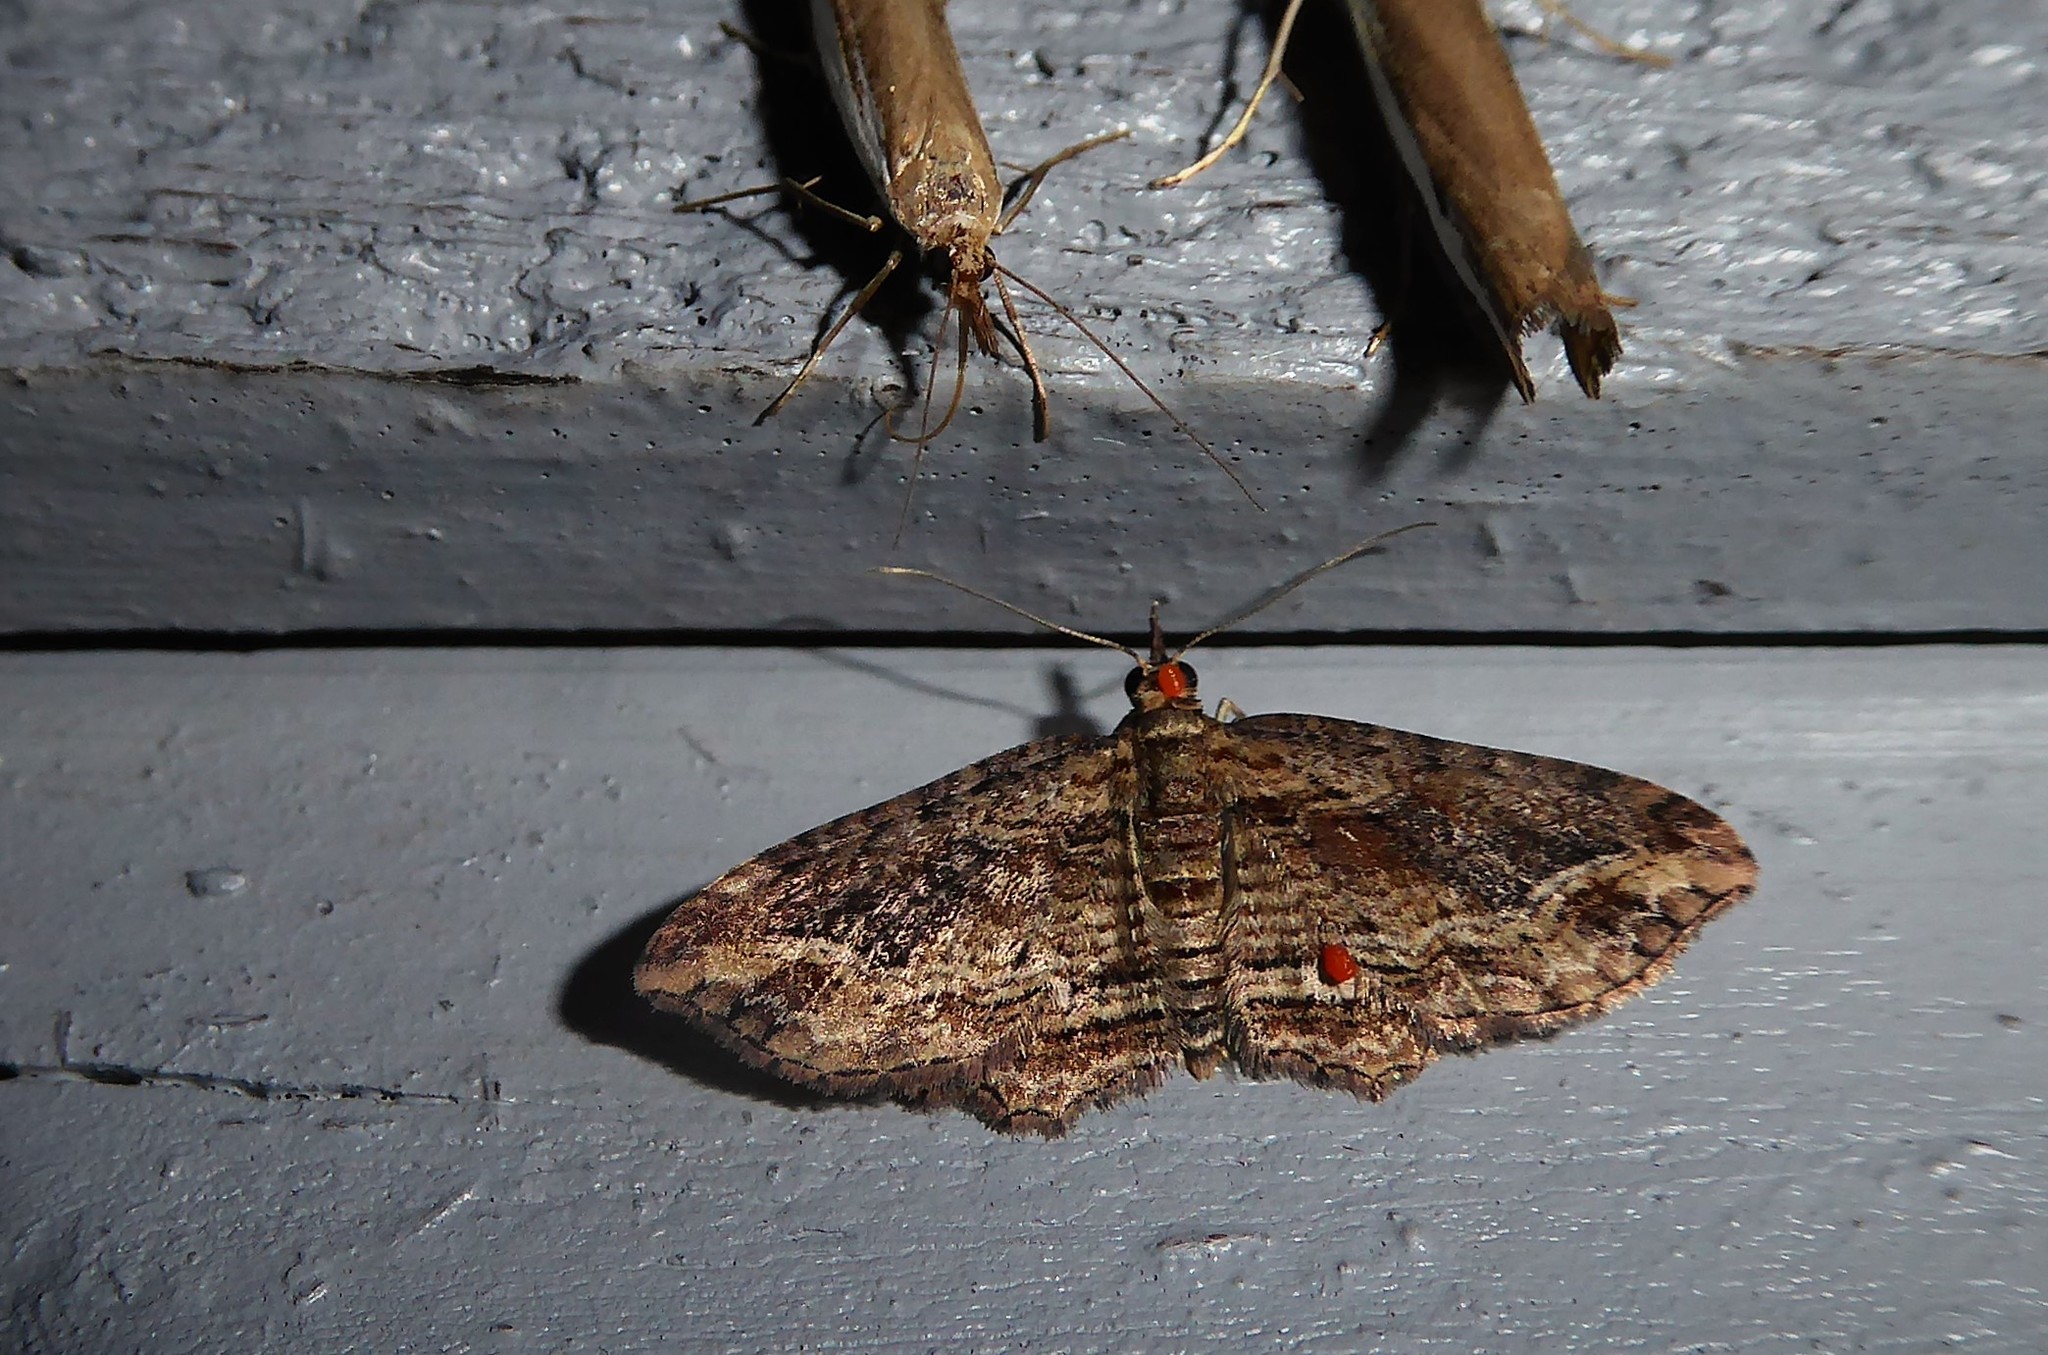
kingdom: Animalia
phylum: Arthropoda
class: Insecta
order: Lepidoptera
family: Geometridae
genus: Chloroclystis
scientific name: Chloroclystis filata
